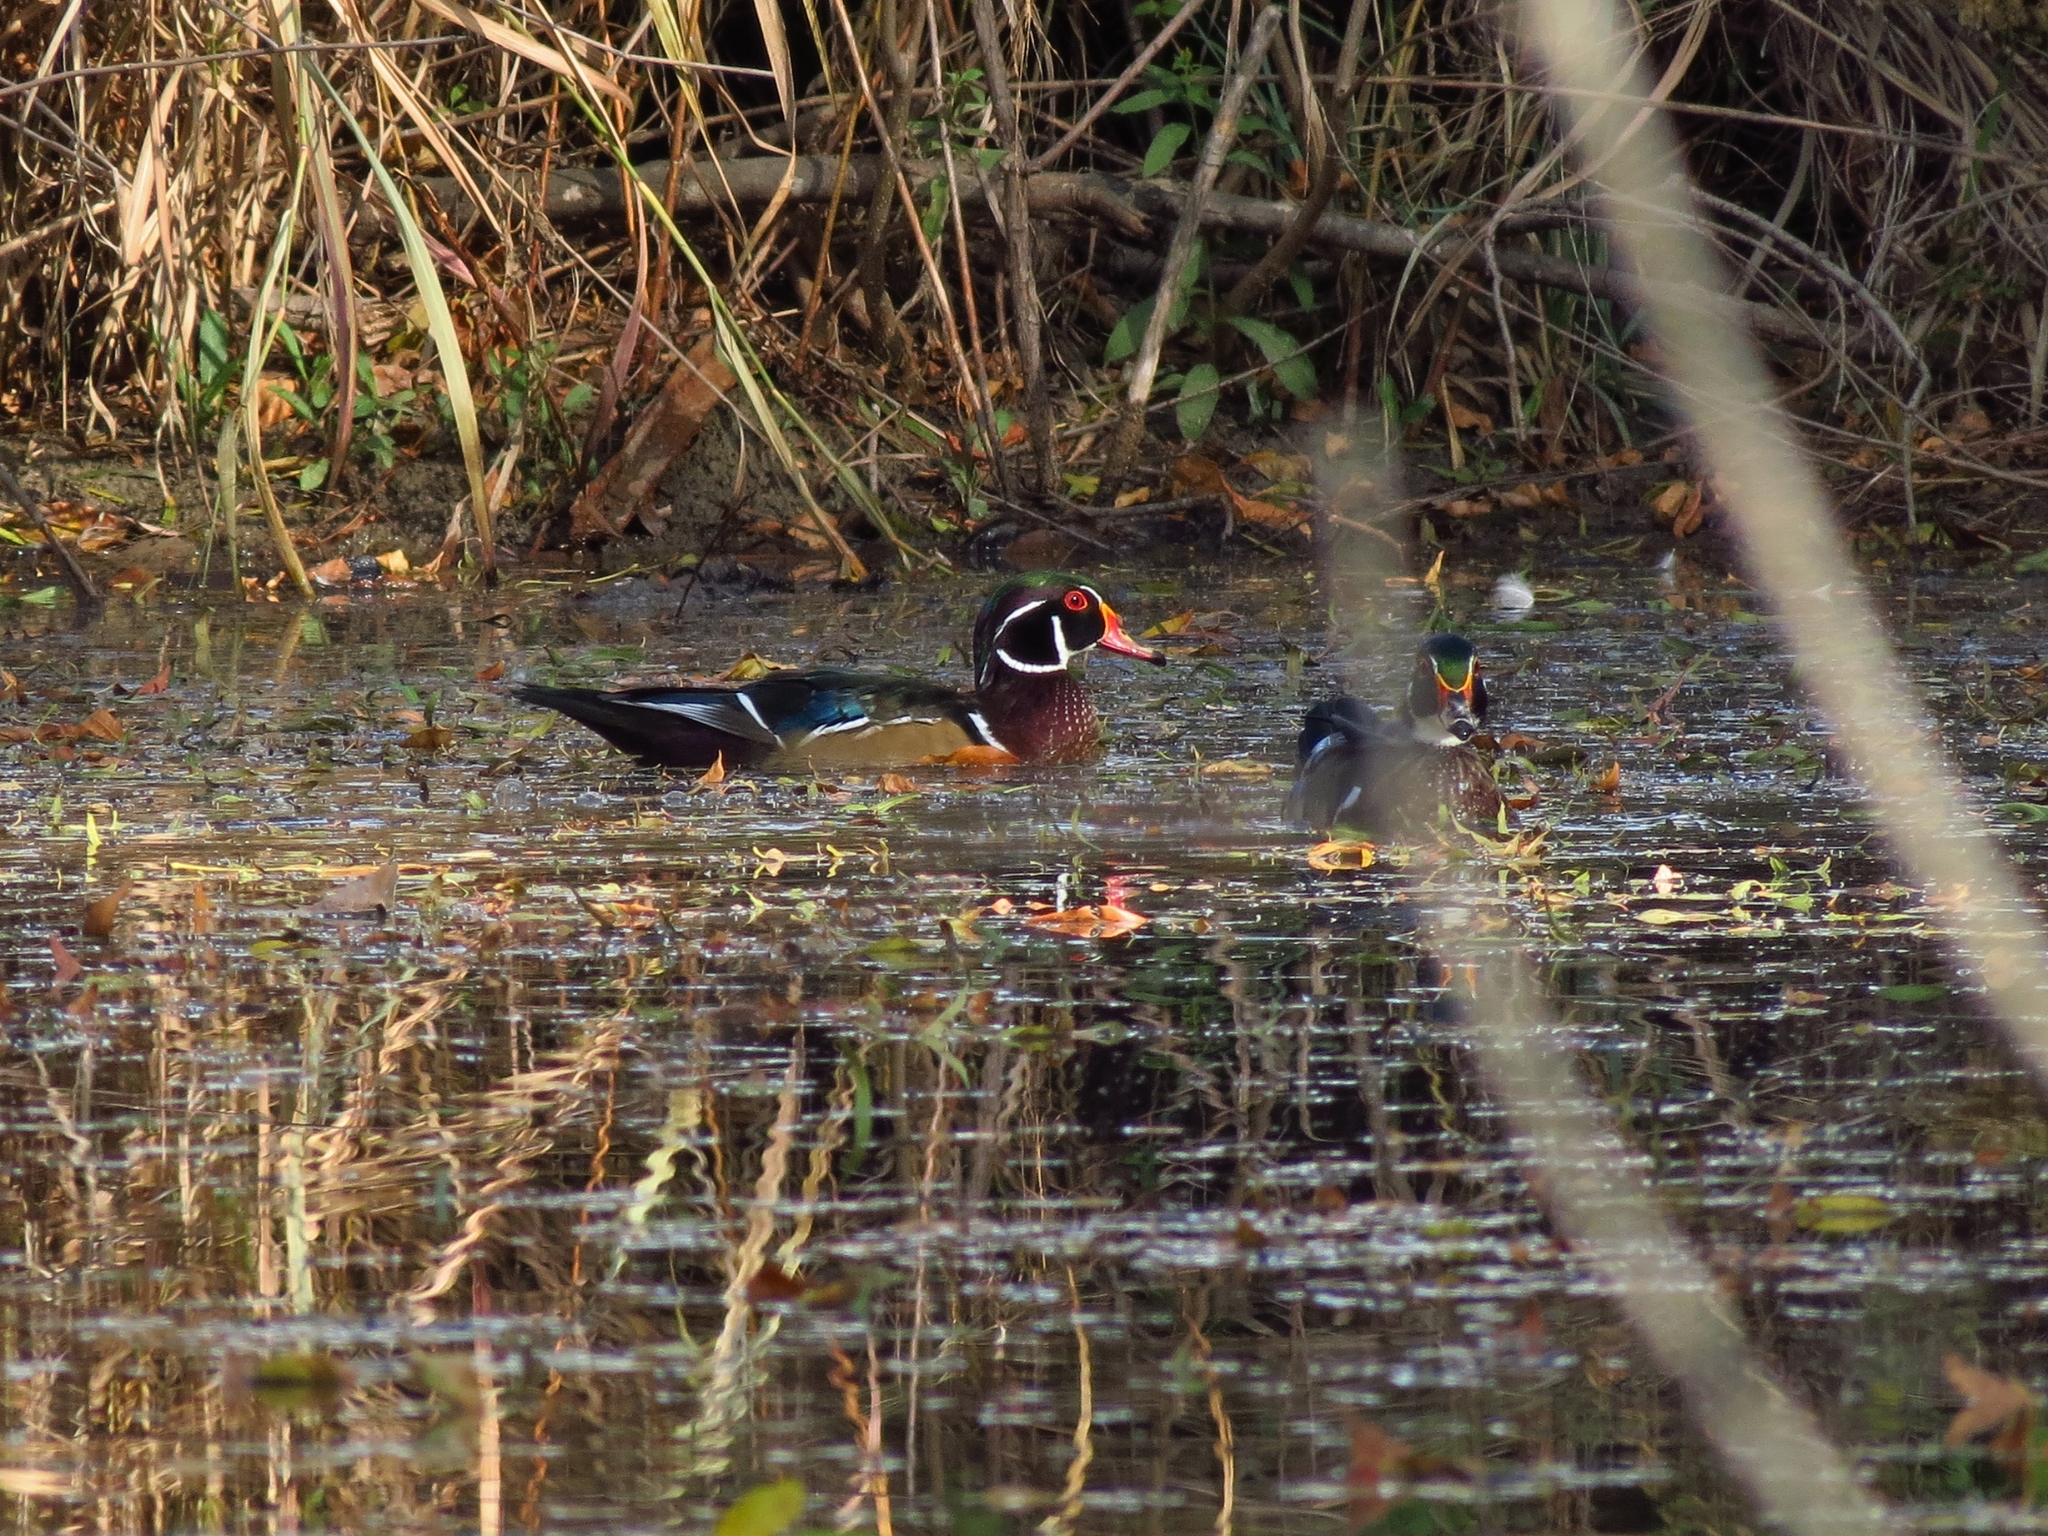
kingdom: Animalia
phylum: Chordata
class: Aves
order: Anseriformes
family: Anatidae
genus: Aix
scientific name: Aix sponsa
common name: Wood duck
